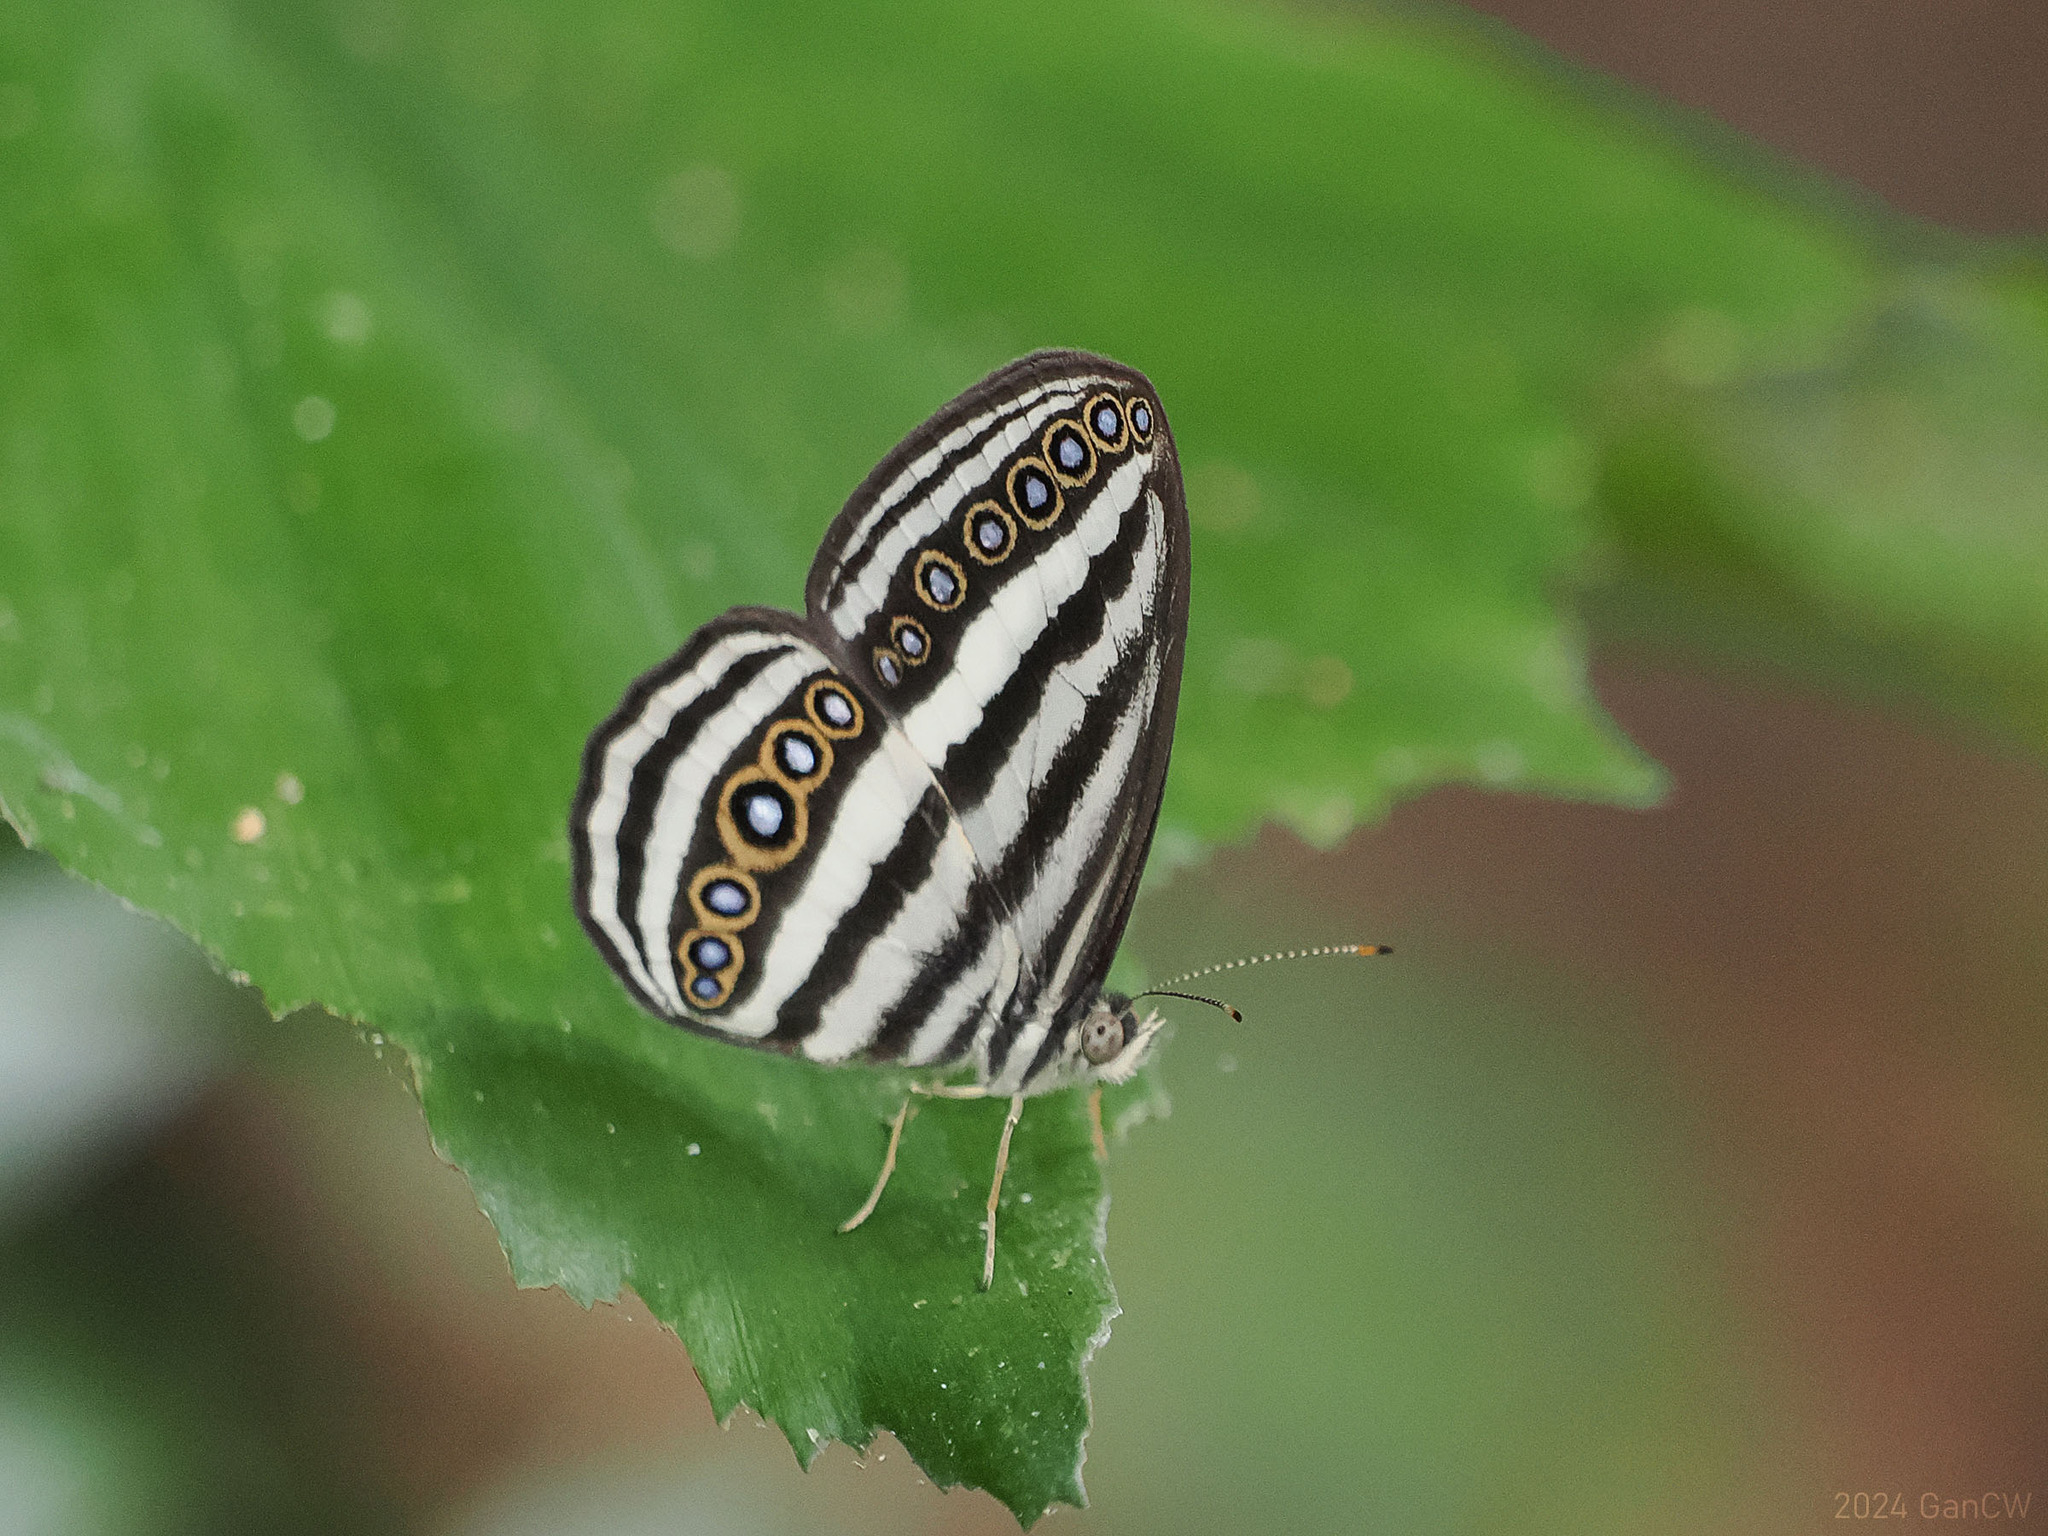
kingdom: Animalia
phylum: Arthropoda
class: Insecta
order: Lepidoptera
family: Nymphalidae
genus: Ragadia
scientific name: Ragadia crisilda
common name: White-striped ringlet
